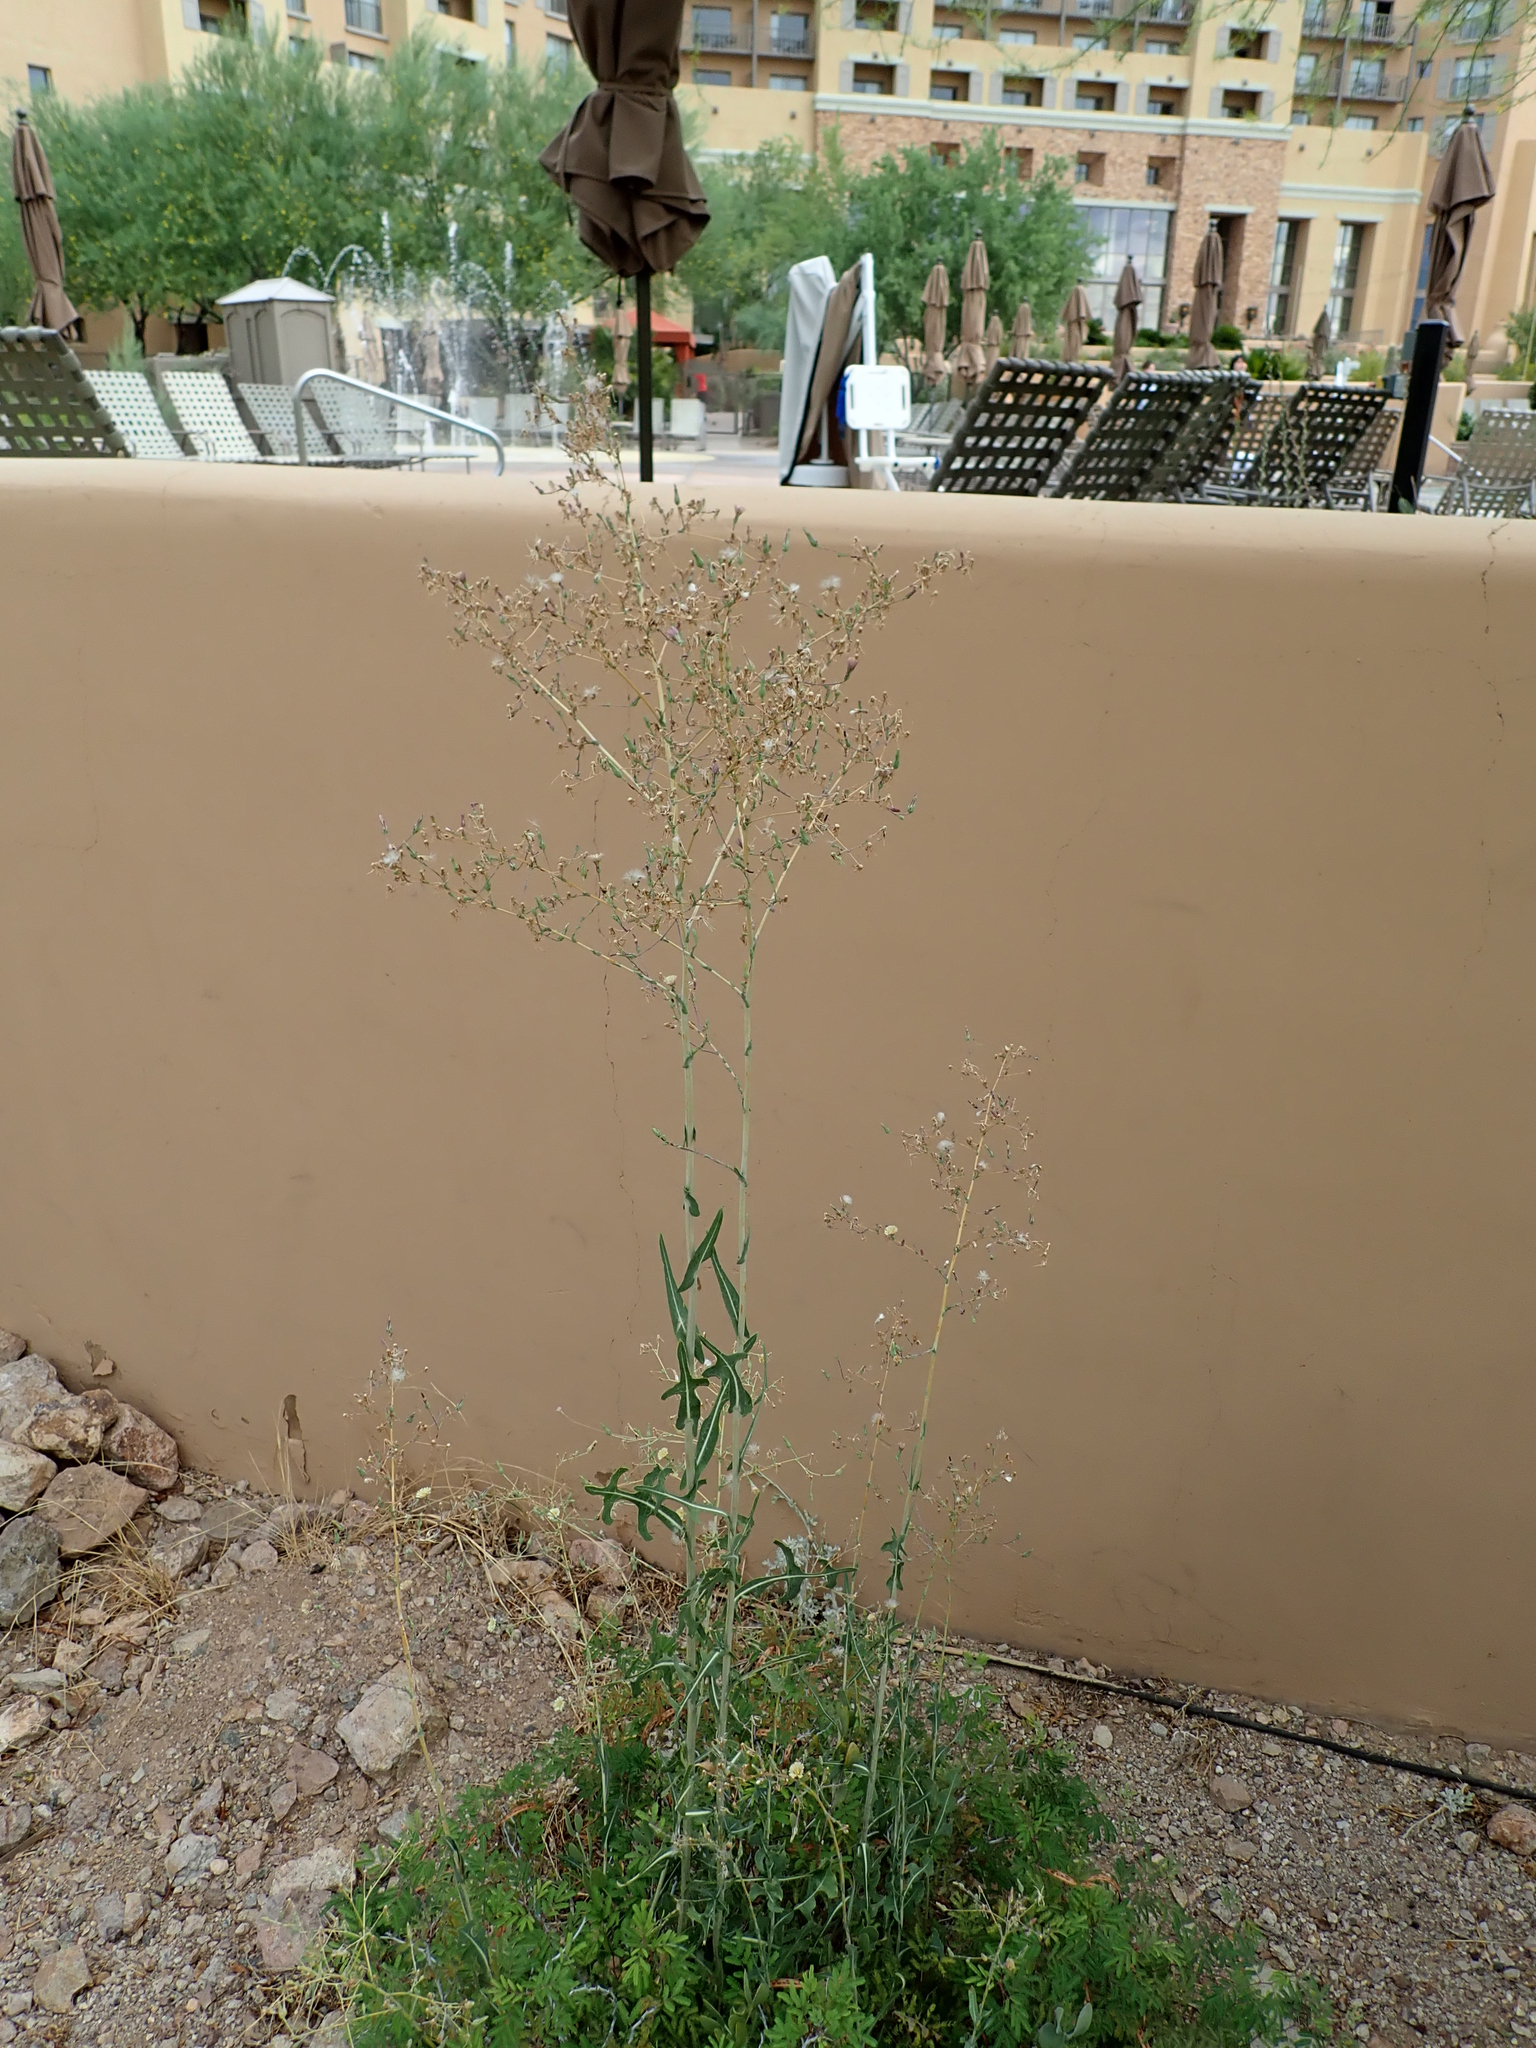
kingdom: Plantae
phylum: Tracheophyta
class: Magnoliopsida
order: Asterales
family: Asteraceae
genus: Lactuca
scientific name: Lactuca serriola
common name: Prickly lettuce
